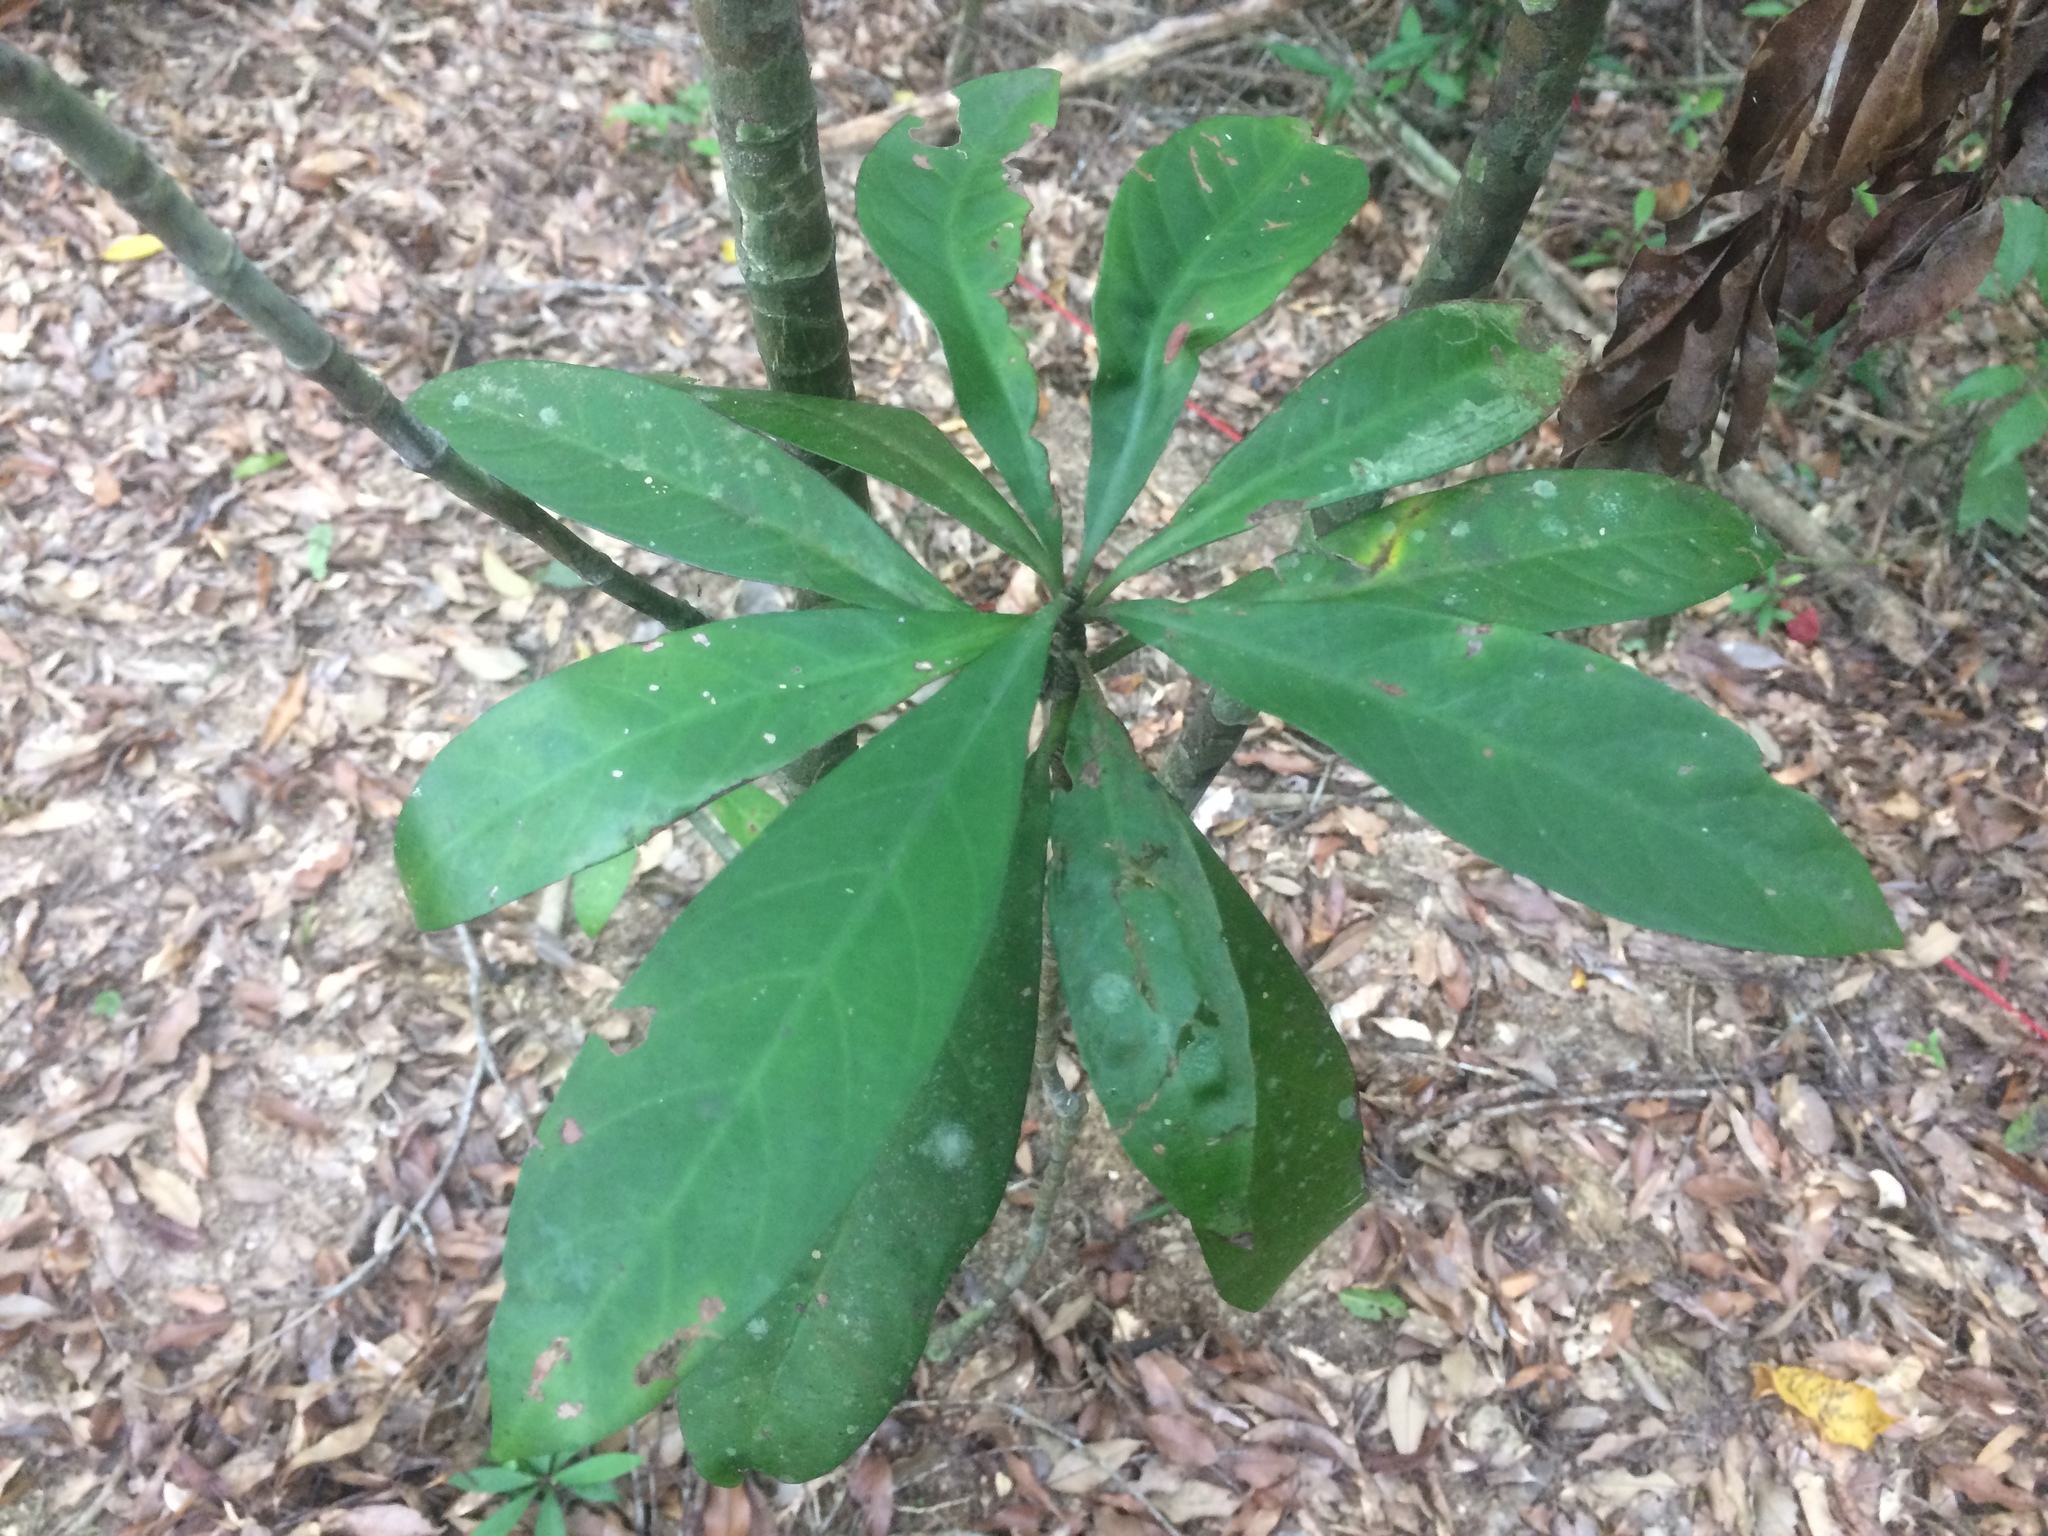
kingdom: Plantae
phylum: Tracheophyta
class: Magnoliopsida
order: Gentianales
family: Rubiaceae
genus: Psychotria
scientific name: Psychotria asiatica
